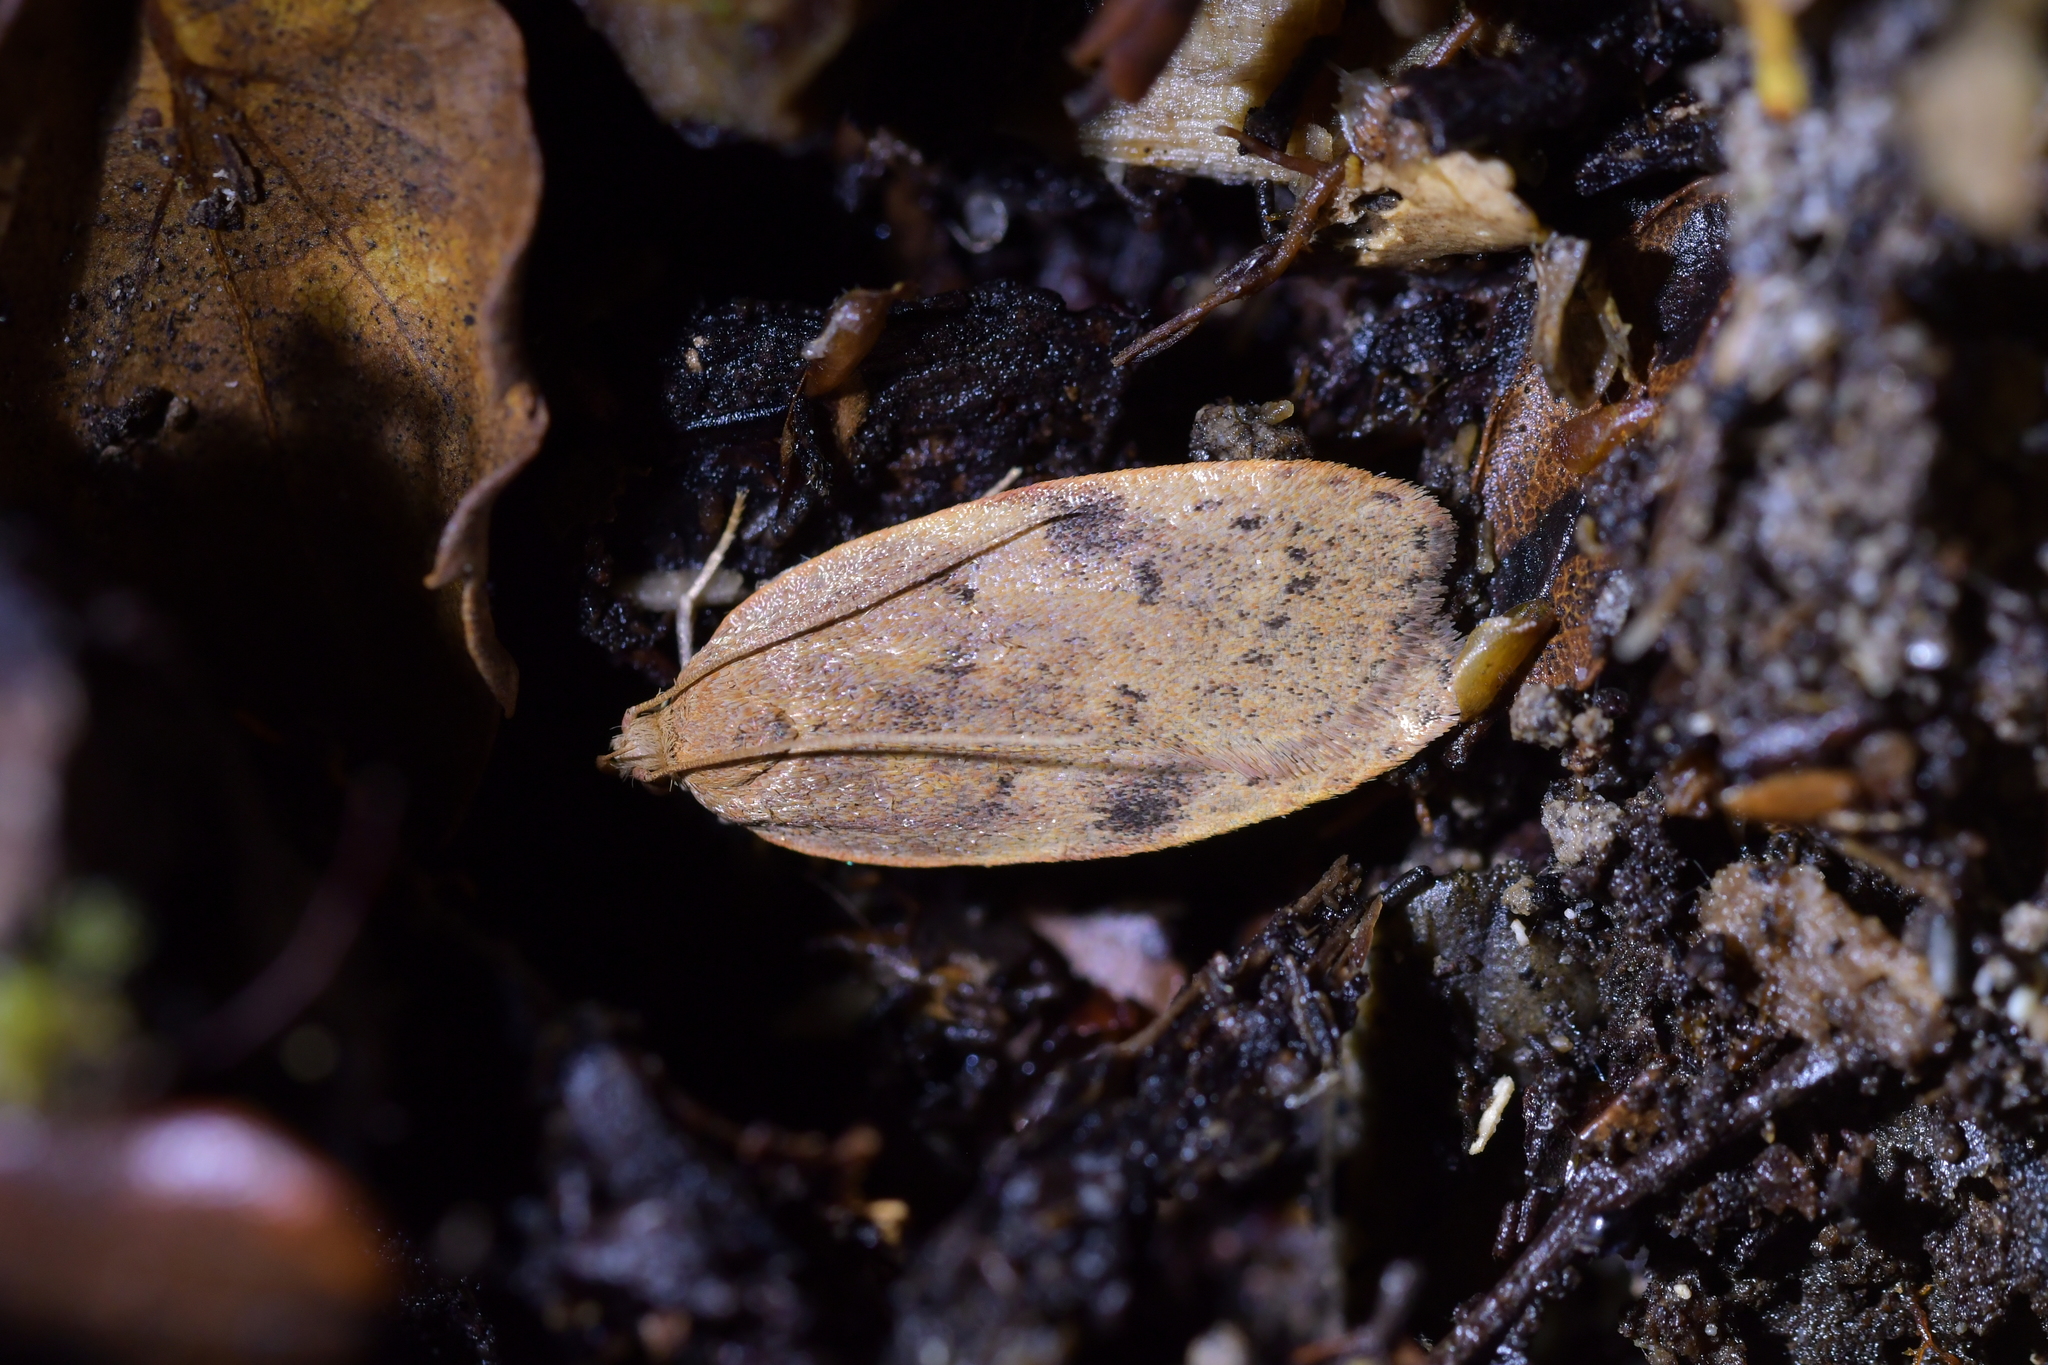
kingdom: Animalia
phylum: Arthropoda
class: Insecta
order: Lepidoptera
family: Depressariidae
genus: Phaeosaces
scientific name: Phaeosaces coarctatella
